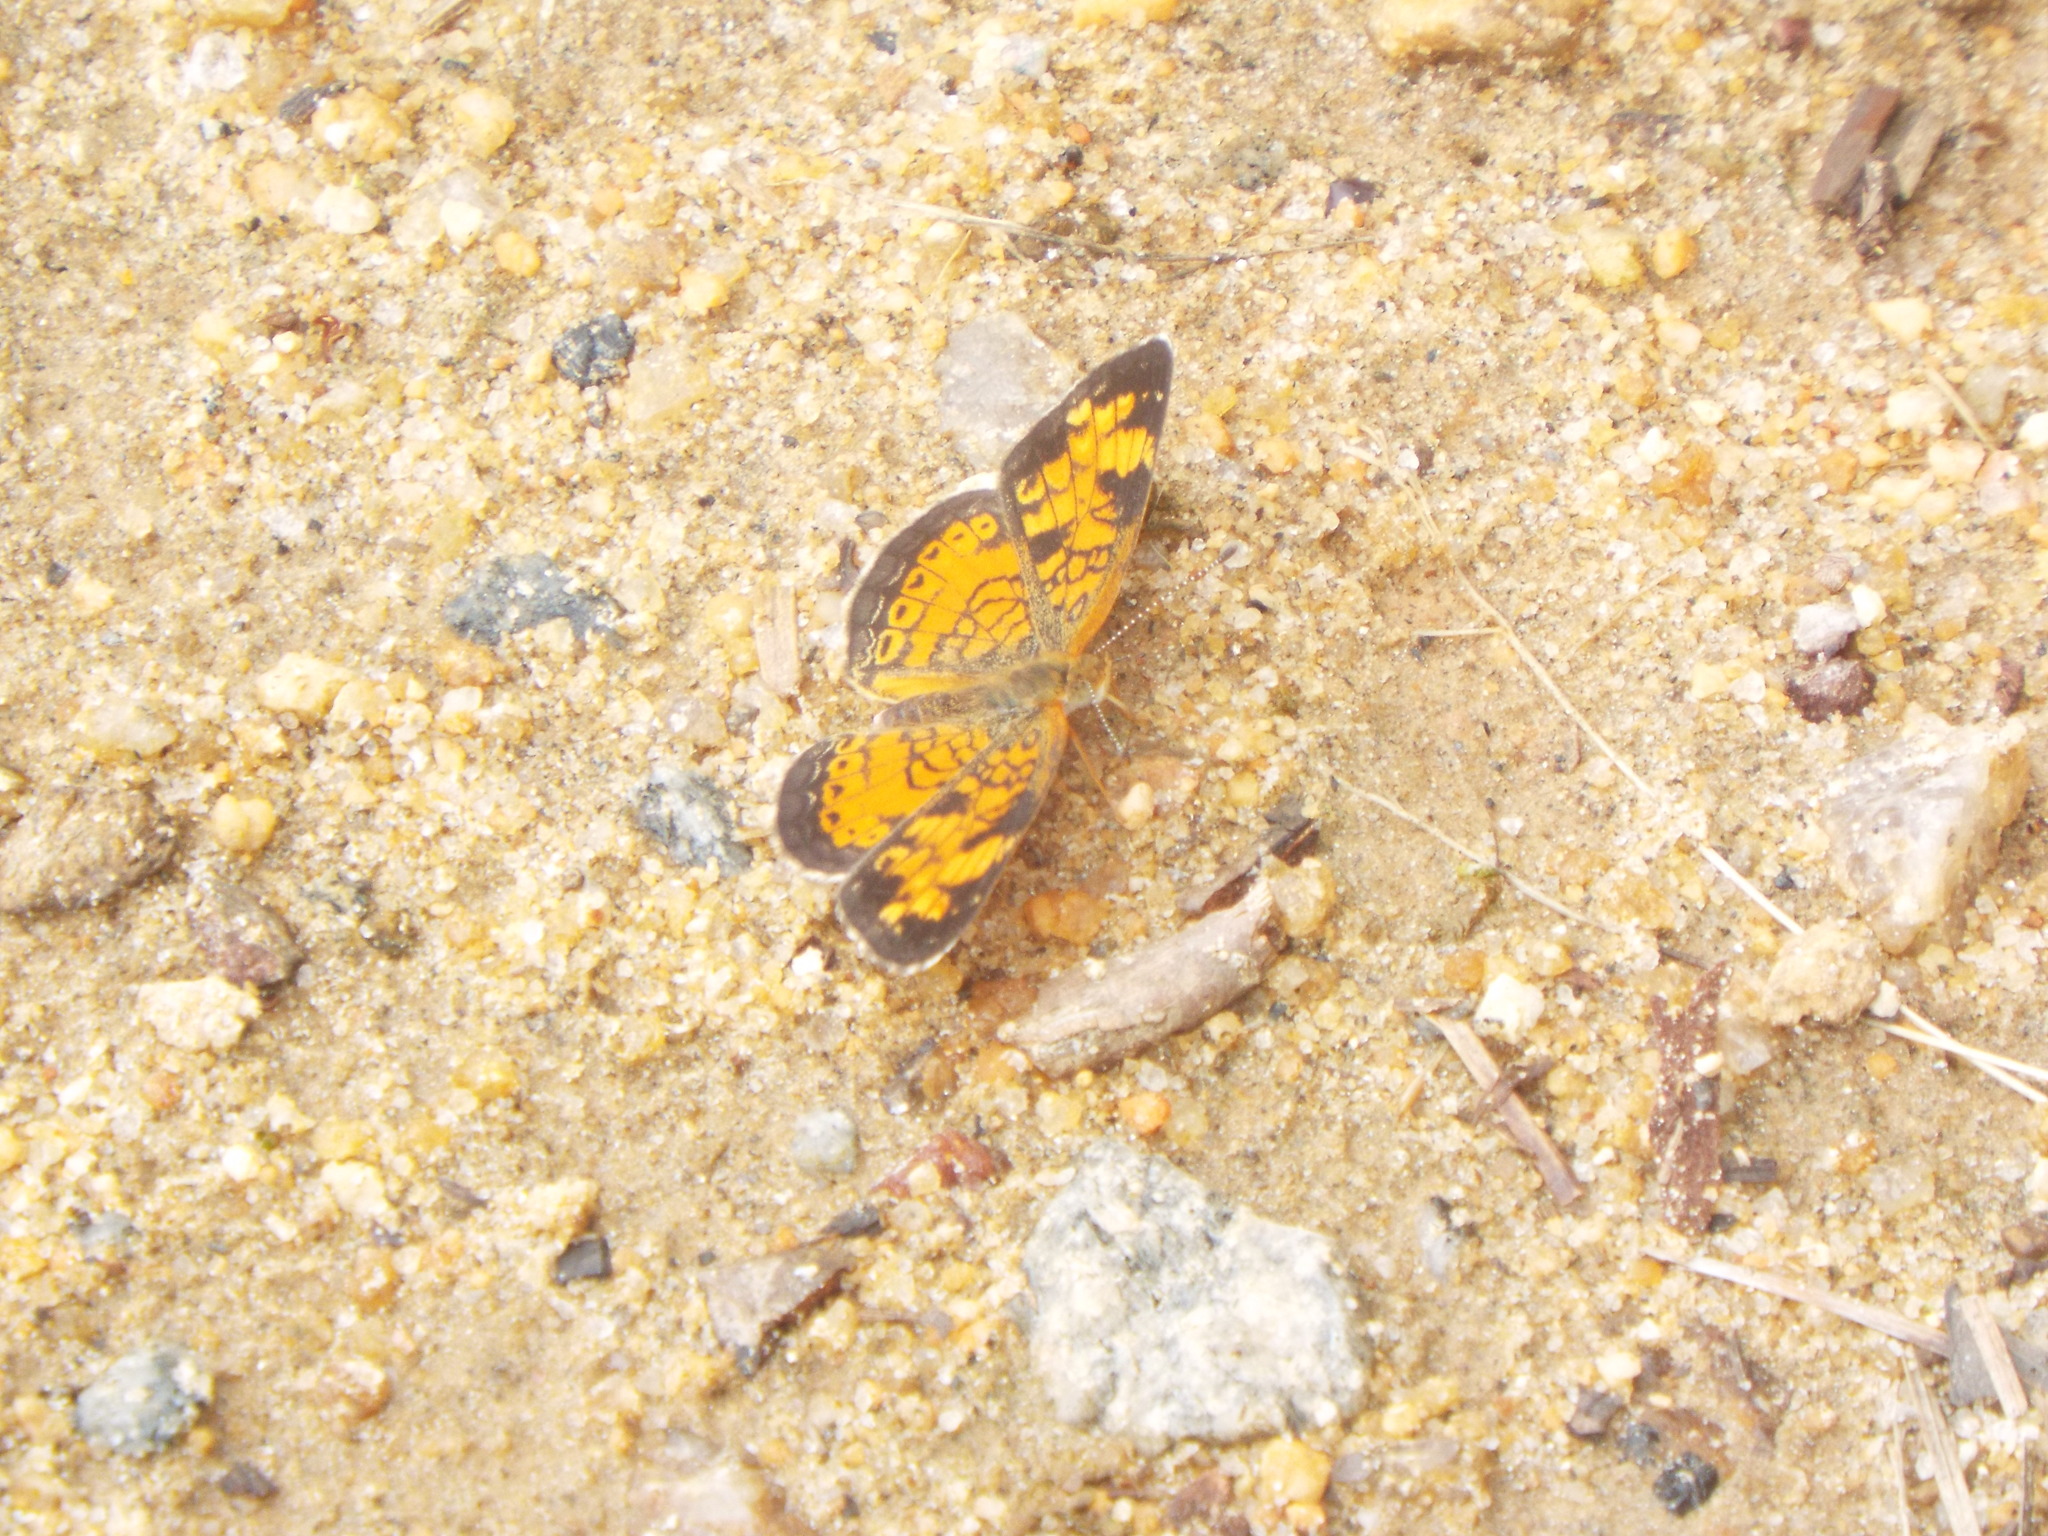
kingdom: Animalia
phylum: Arthropoda
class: Insecta
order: Lepidoptera
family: Nymphalidae
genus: Phyciodes
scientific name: Phyciodes tharos
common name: Pearl crescent
